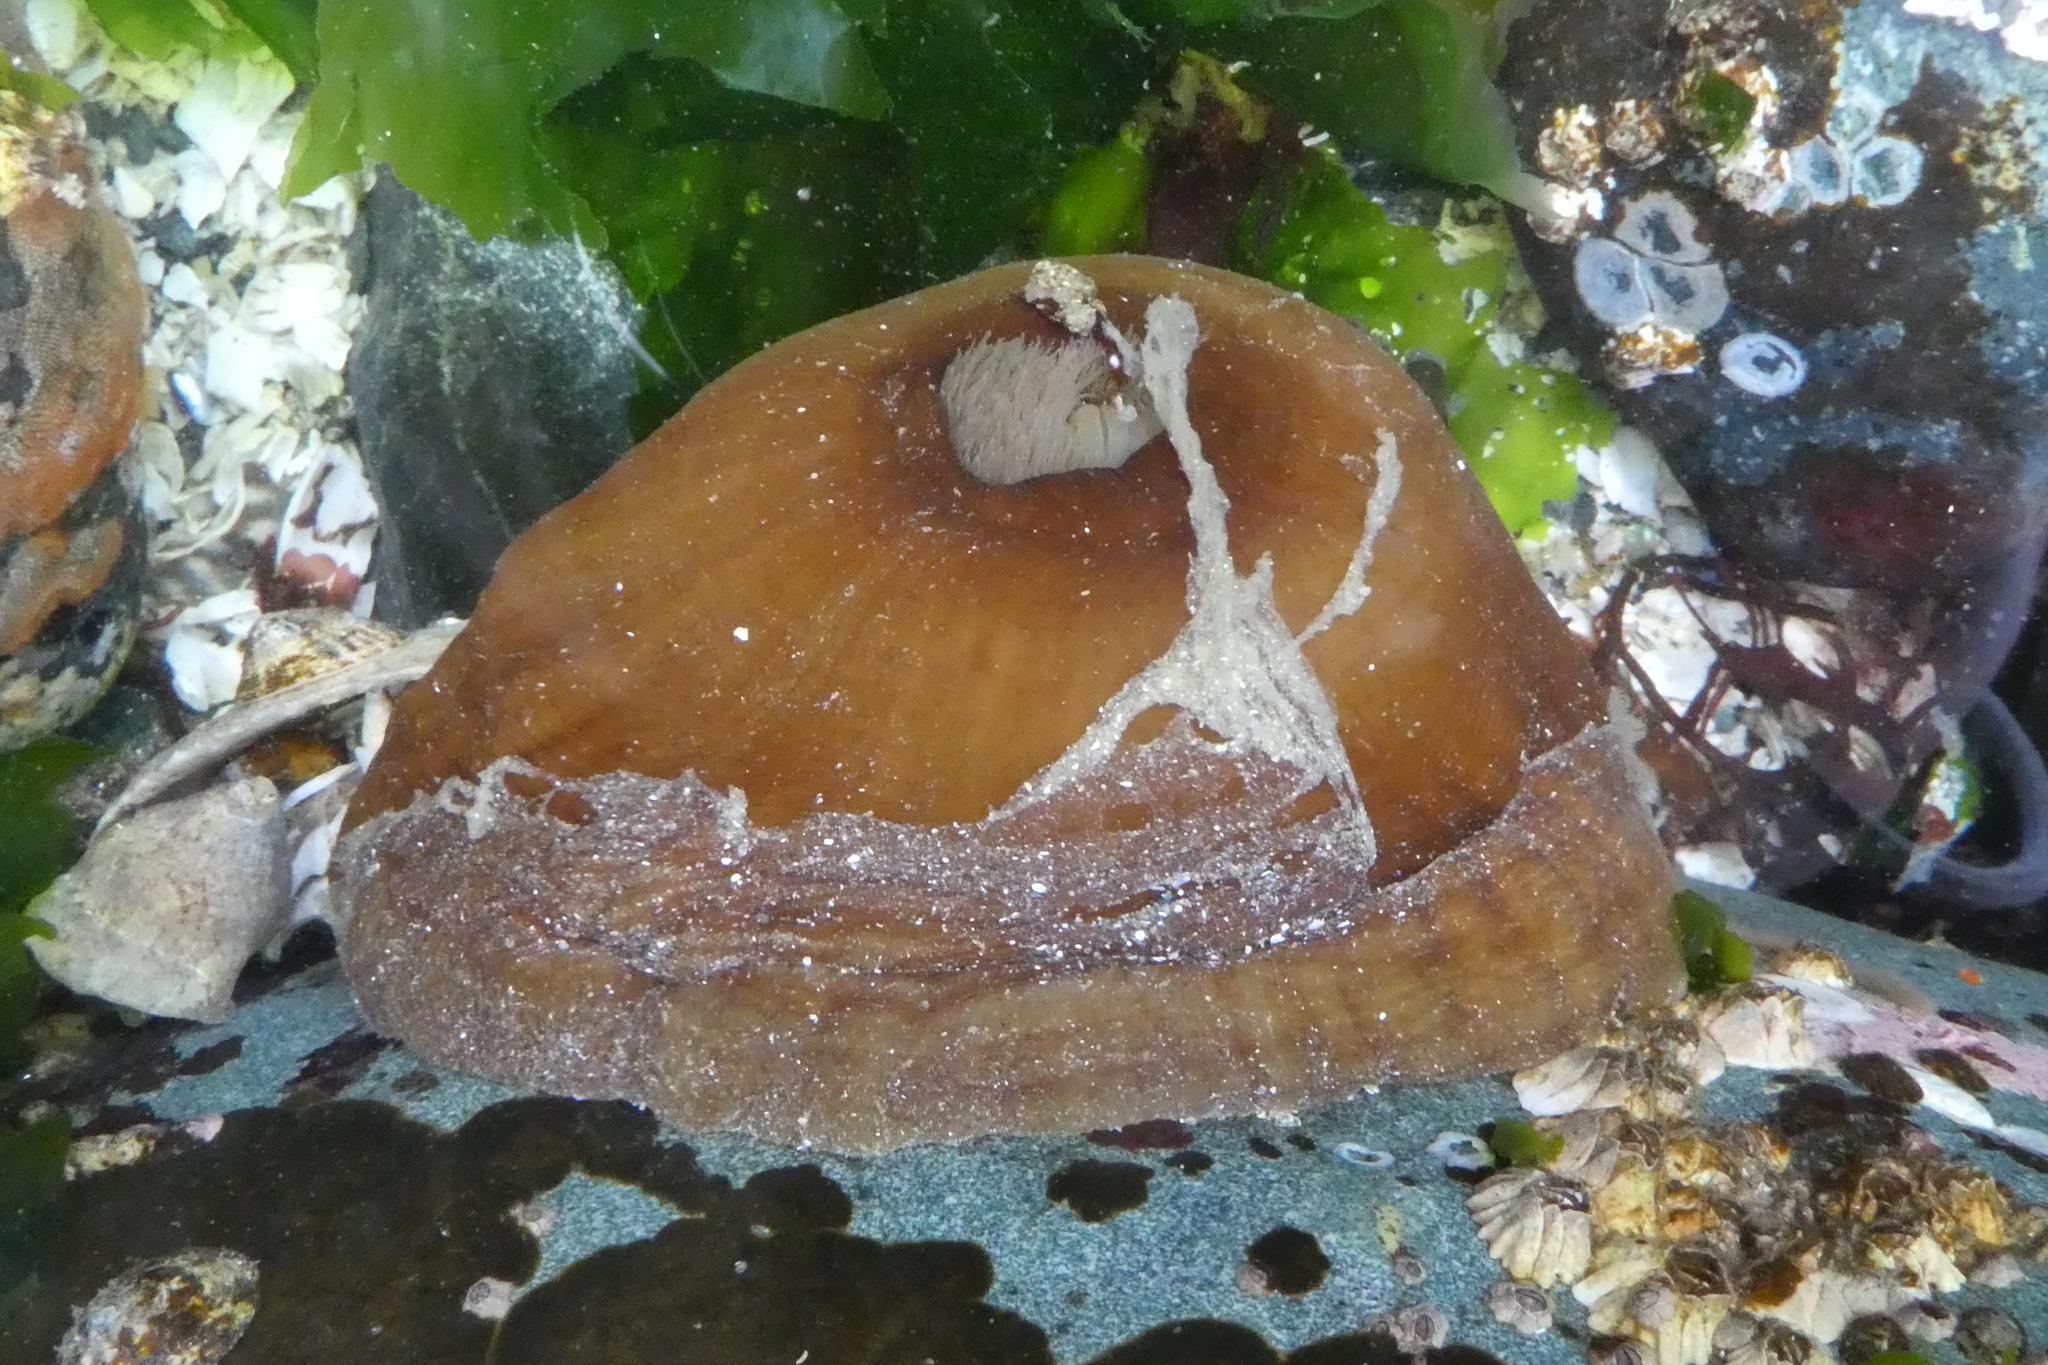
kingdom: Animalia
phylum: Cnidaria
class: Anthozoa
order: Actiniaria
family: Metridiidae
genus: Metridium
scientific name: Metridium senile
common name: Clonal plumose anemone
